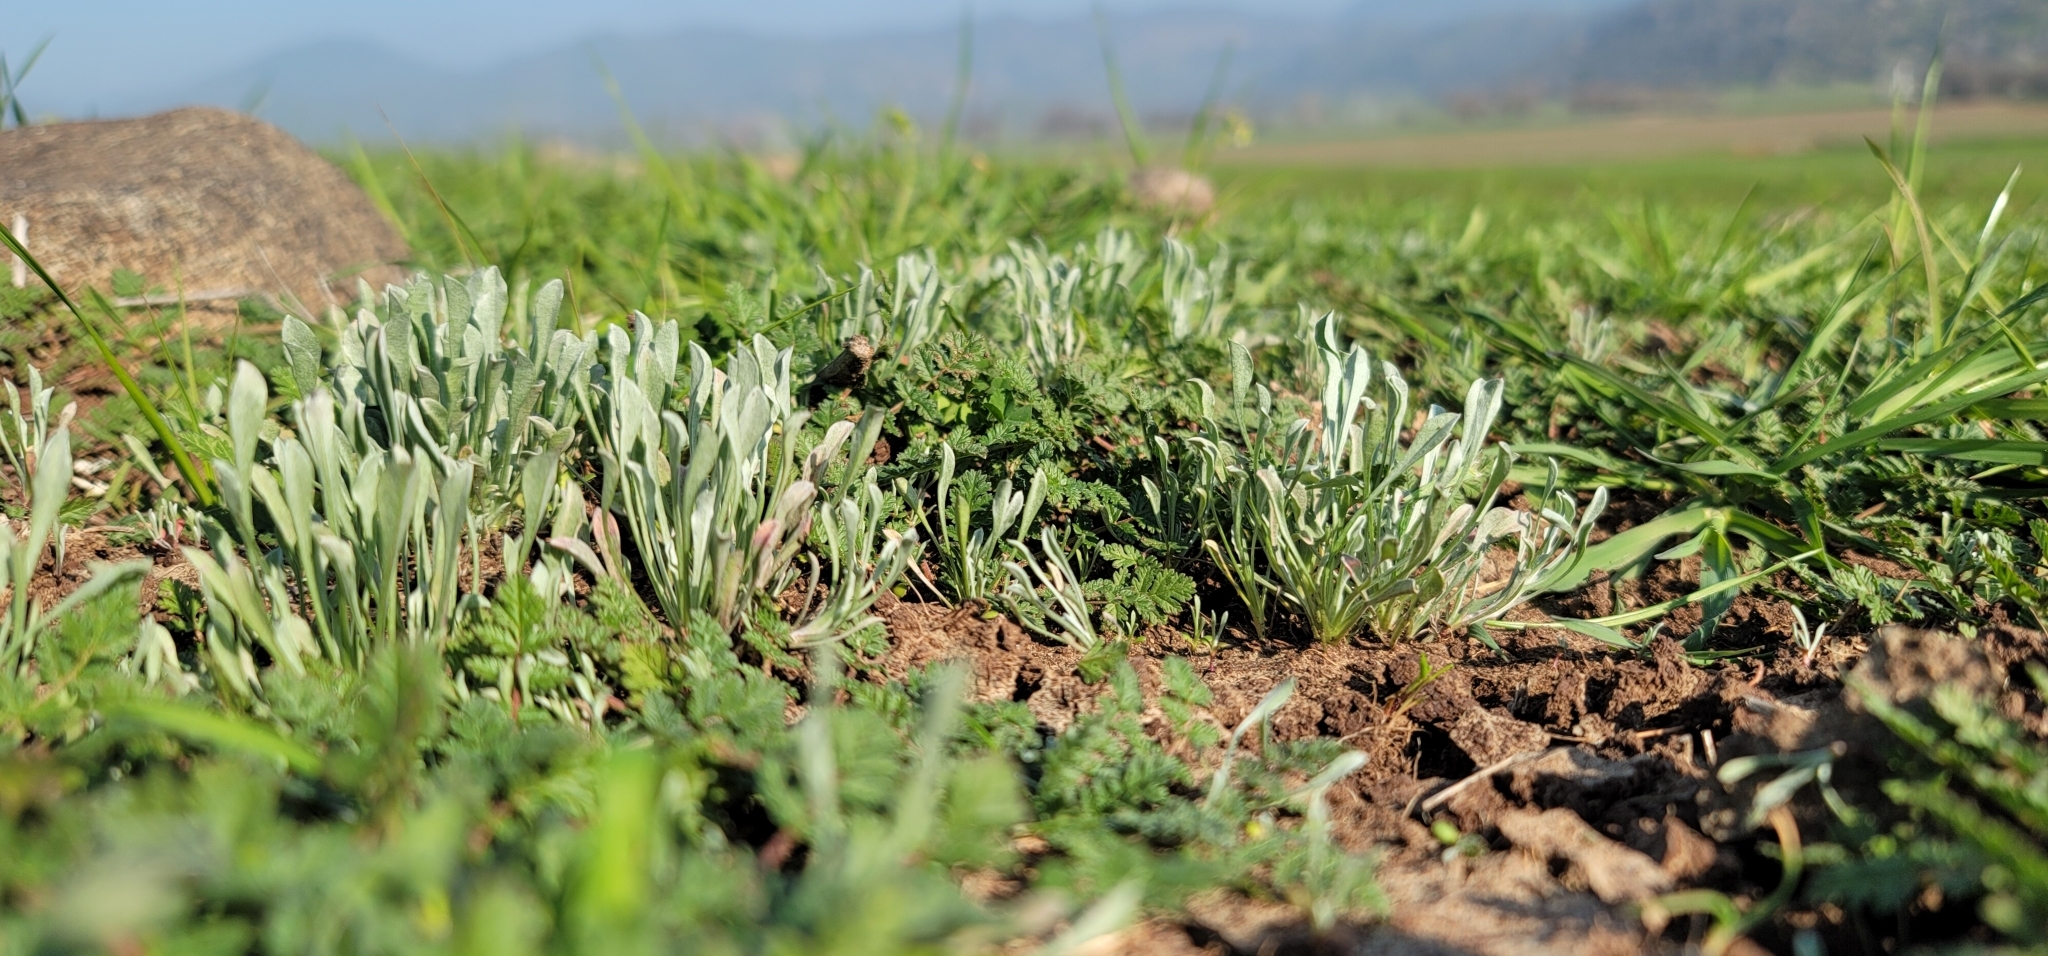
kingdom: Plantae
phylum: Tracheophyta
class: Magnoliopsida
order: Asterales
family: Asteraceae
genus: Hesperevax
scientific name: Hesperevax caulescens
